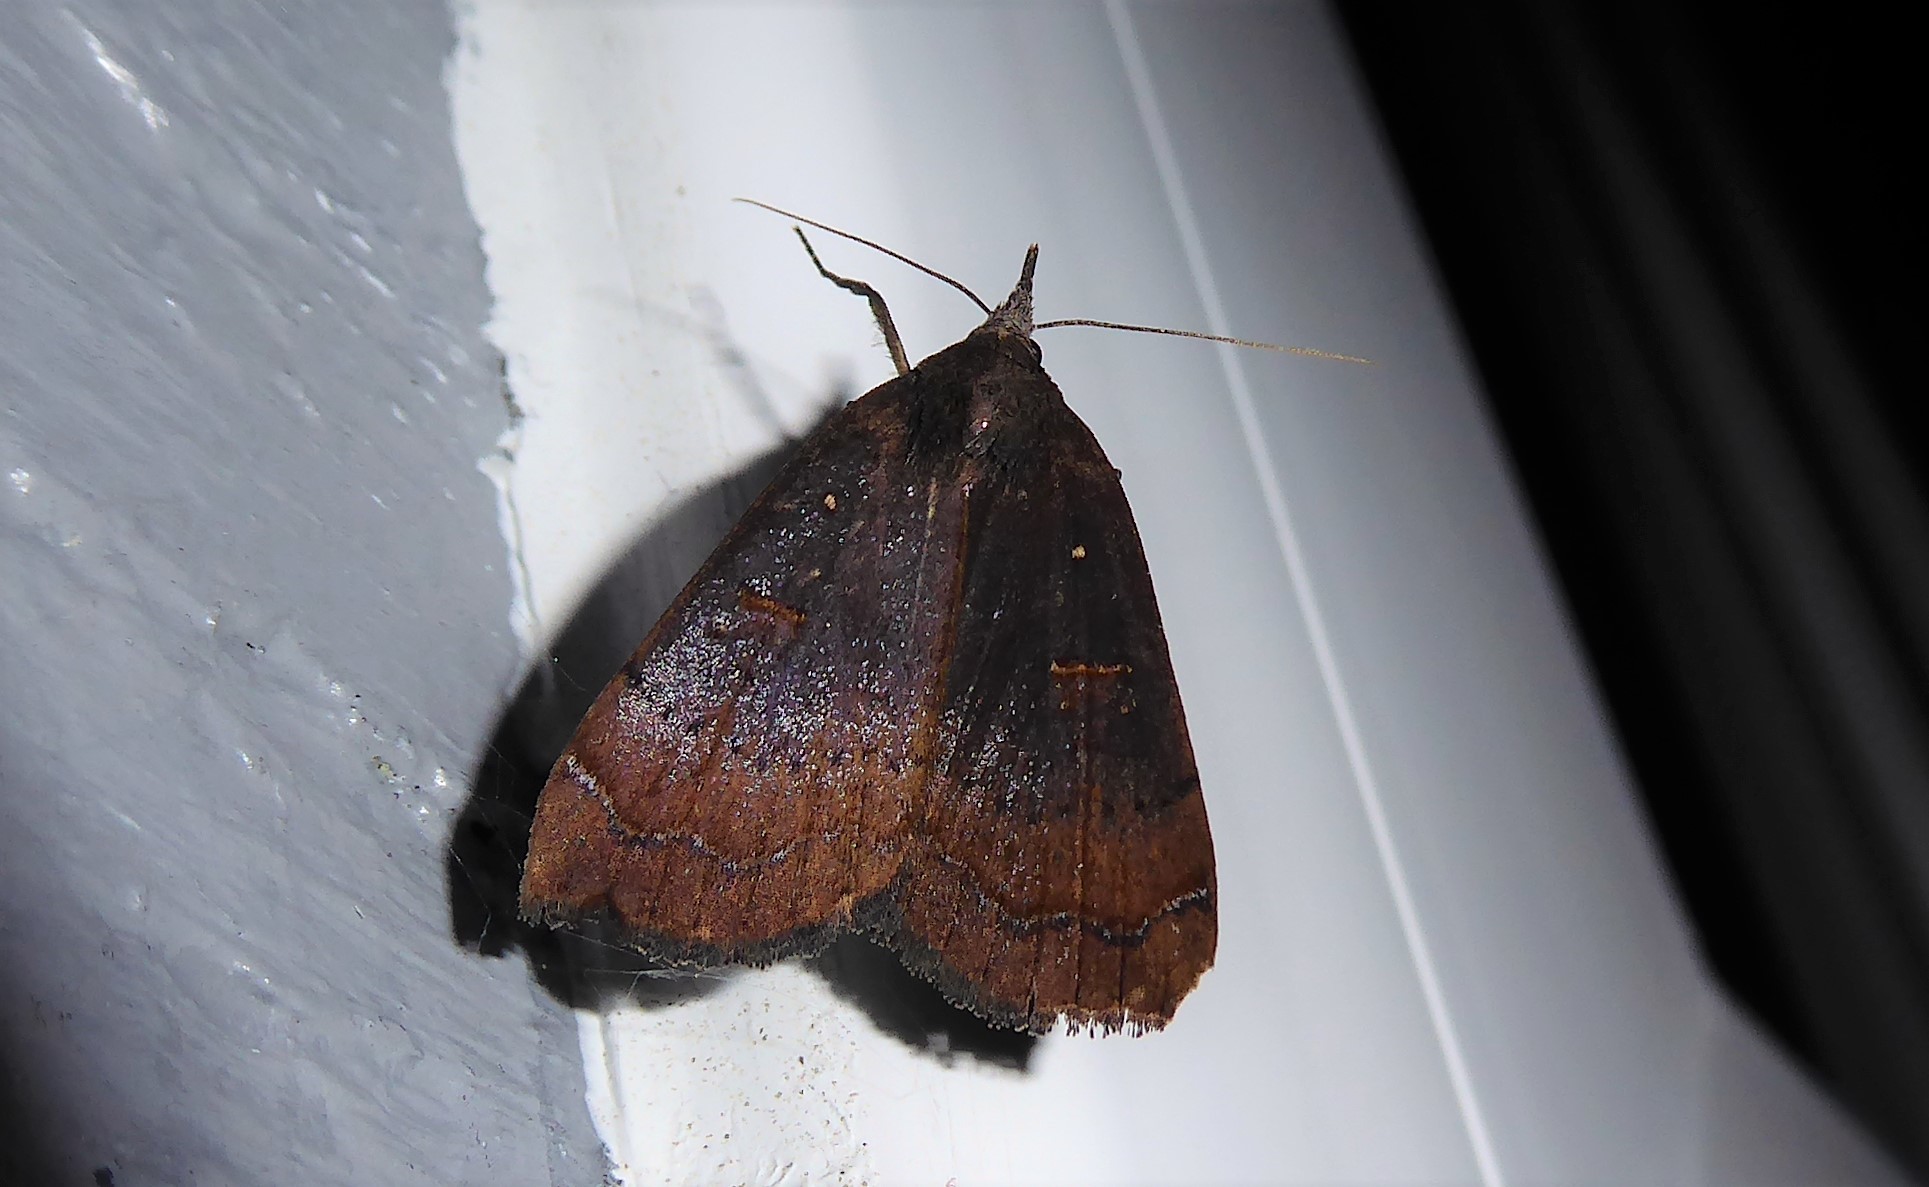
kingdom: Animalia
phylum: Arthropoda
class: Insecta
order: Lepidoptera
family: Erebidae
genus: Rhapsa
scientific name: Rhapsa scotosialis
